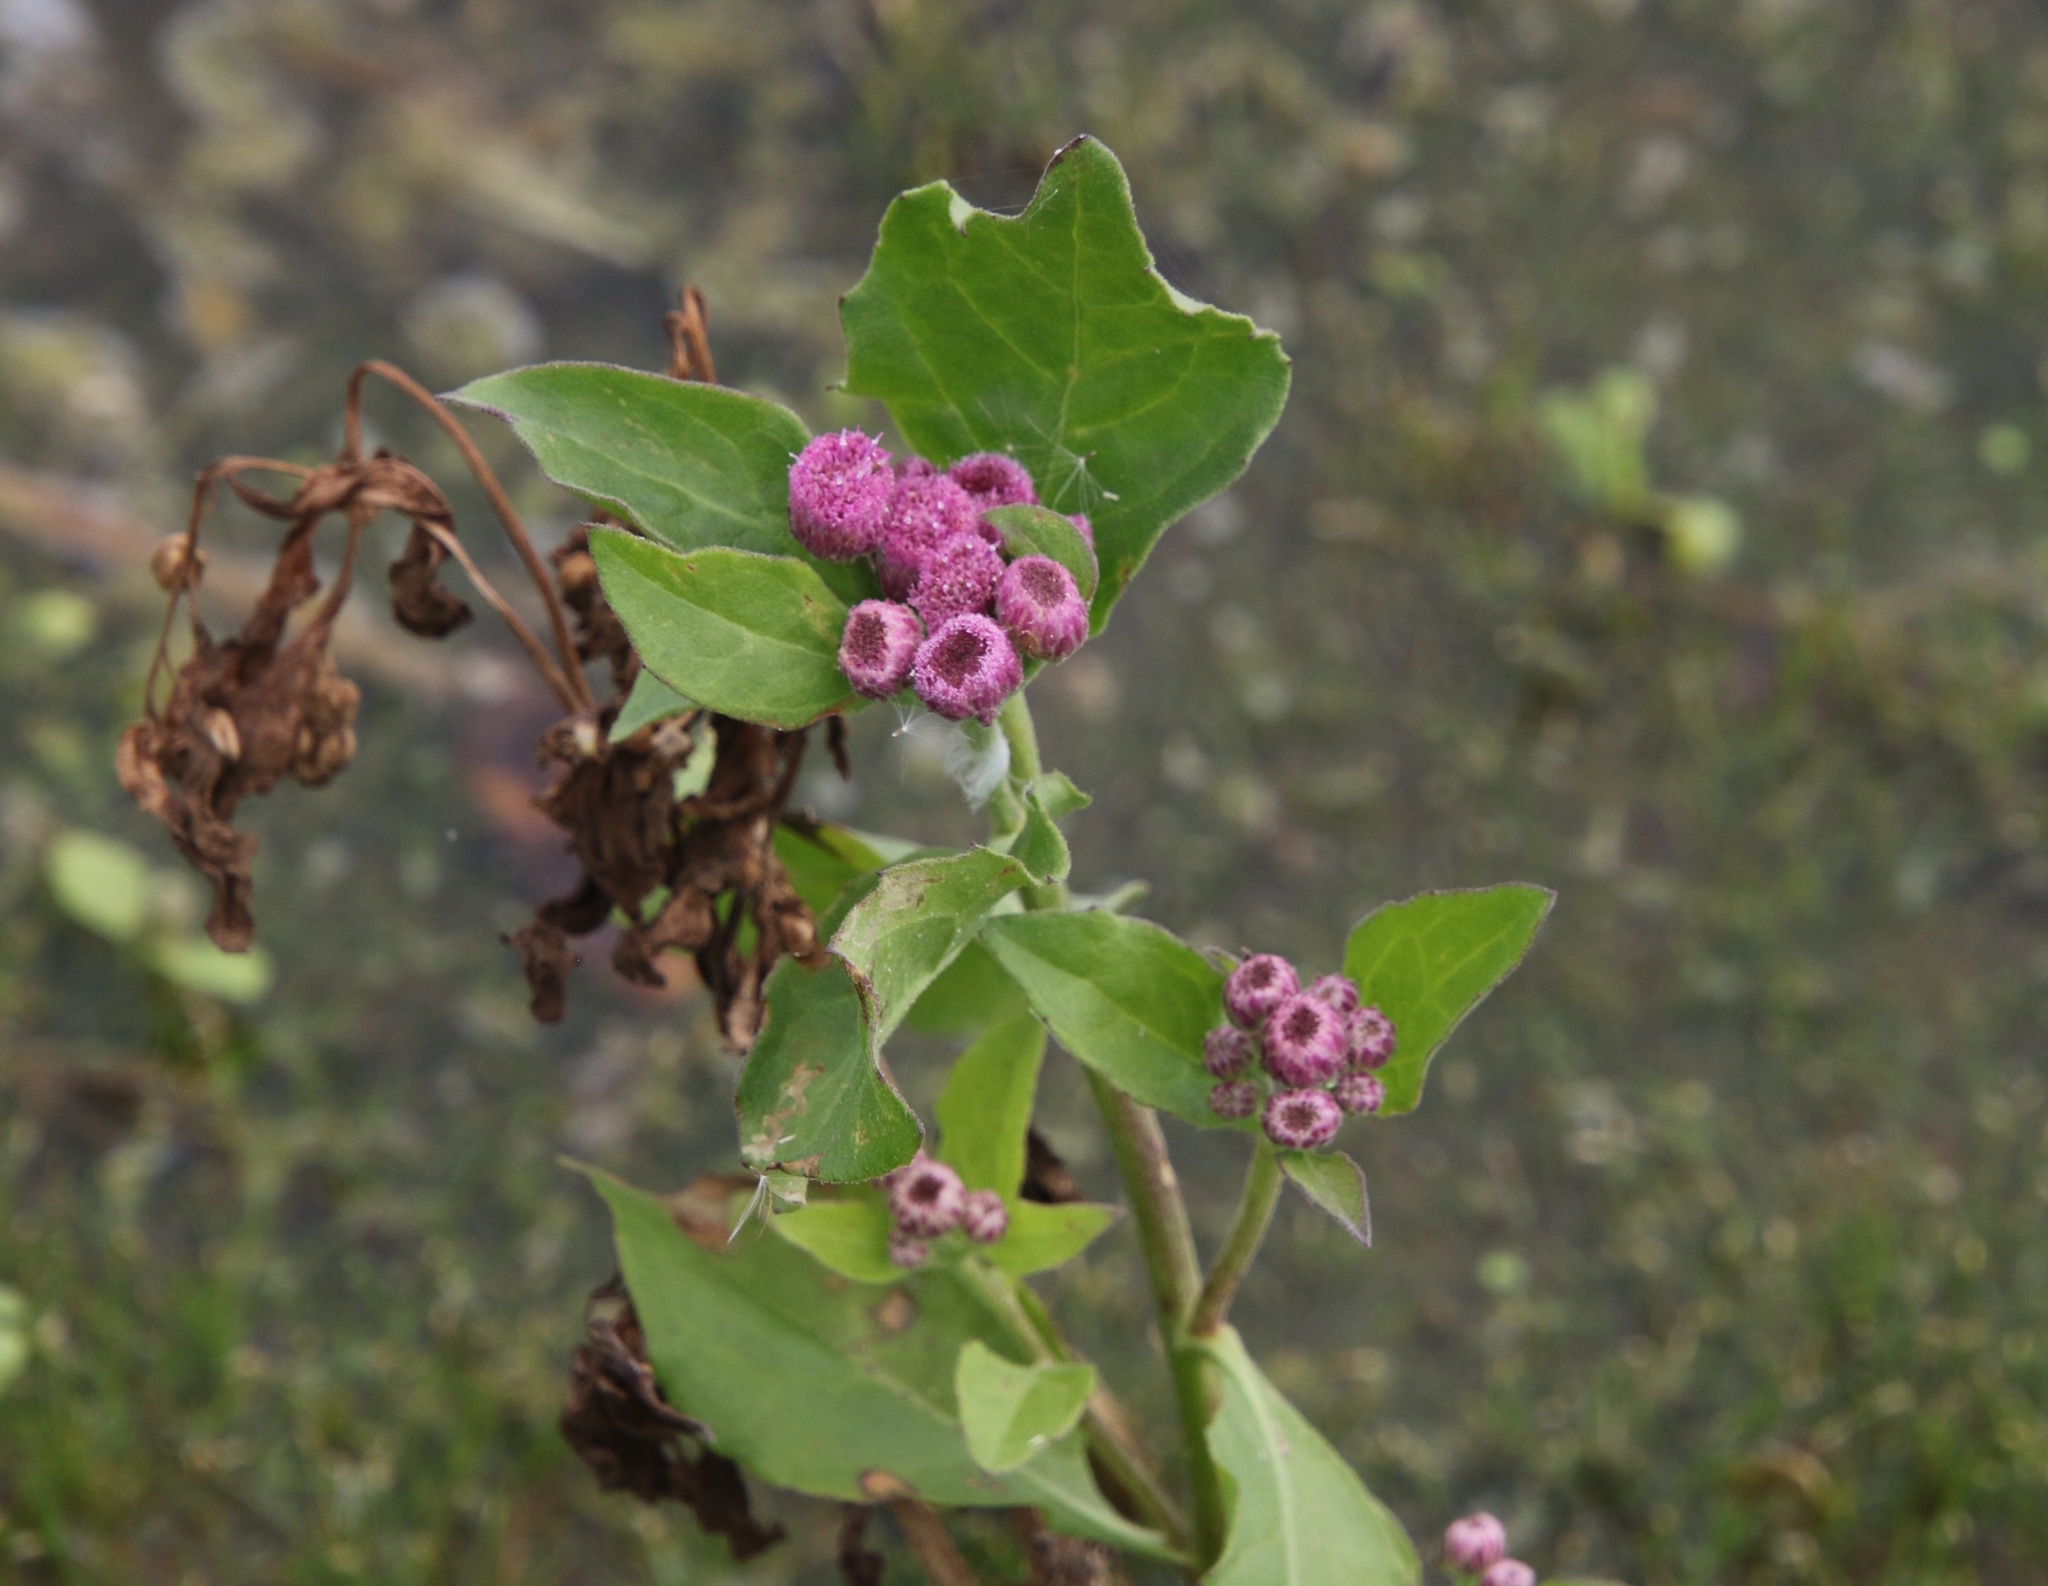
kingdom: Plantae
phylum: Tracheophyta
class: Magnoliopsida
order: Asterales
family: Asteraceae
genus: Pluchea
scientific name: Pluchea odorata
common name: Saltmarsh fleabane
